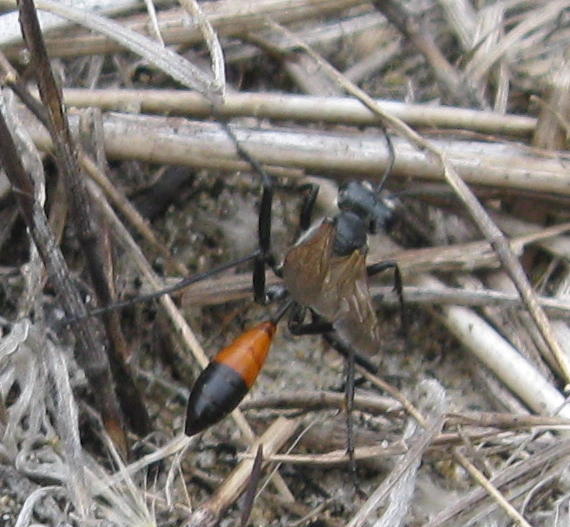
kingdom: Animalia
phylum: Arthropoda
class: Insecta
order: Hymenoptera
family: Sphecidae
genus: Podalonia
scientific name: Podalonia tydei
